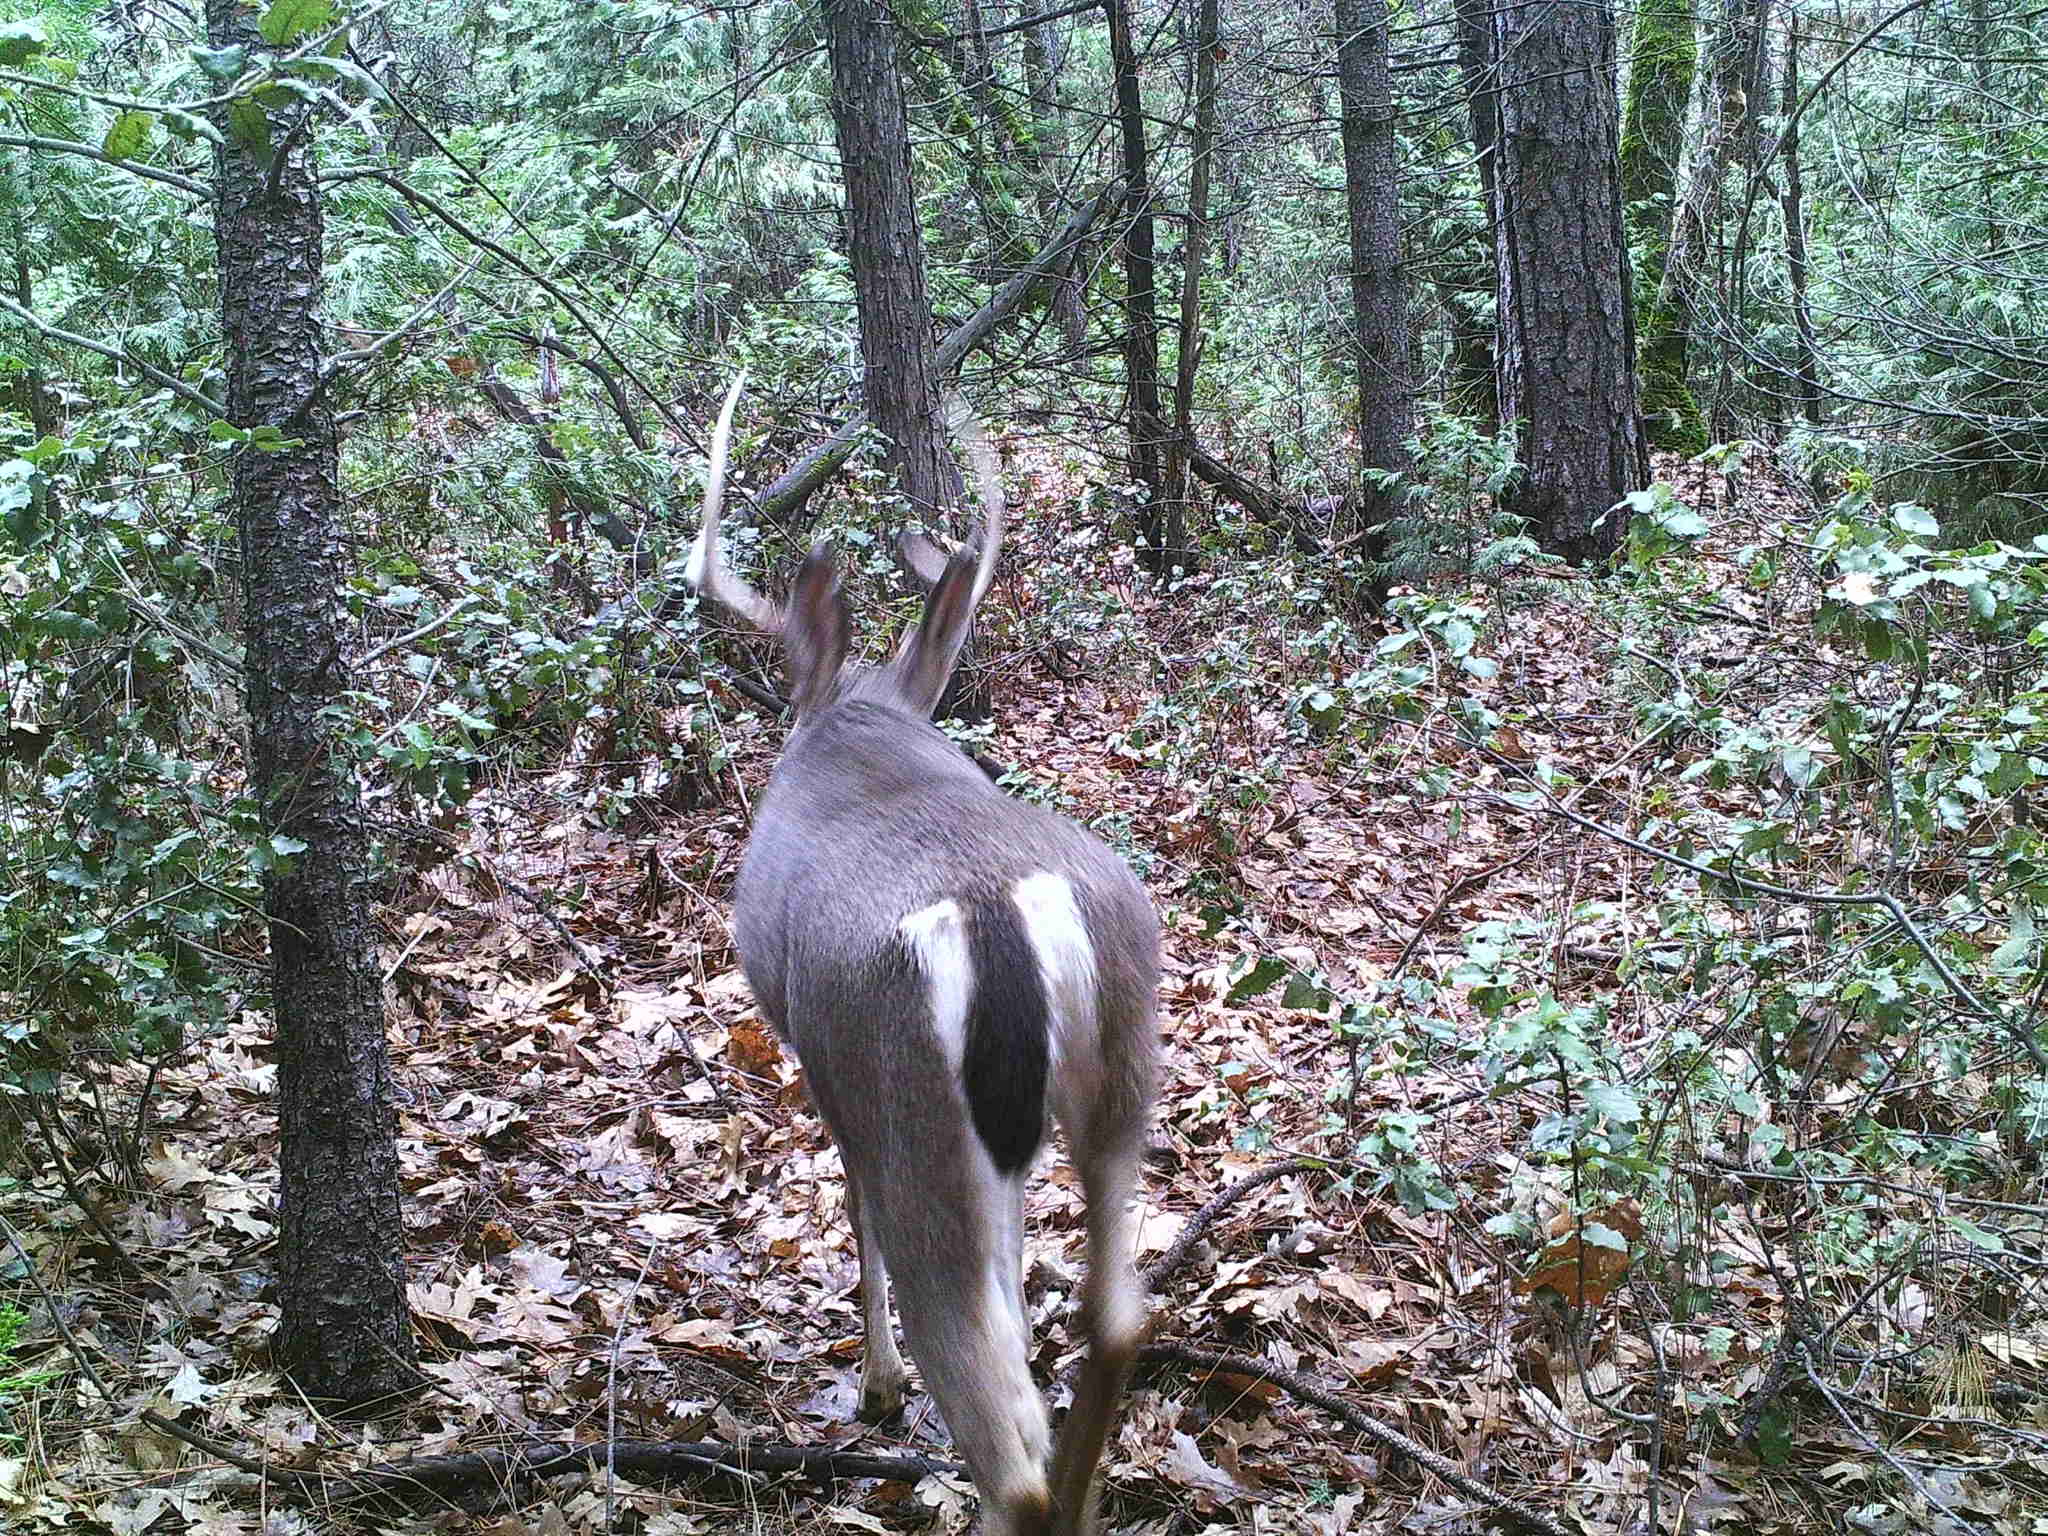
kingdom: Animalia
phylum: Chordata
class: Mammalia
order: Artiodactyla
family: Cervidae
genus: Odocoileus
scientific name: Odocoileus hemionus
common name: Mule deer
